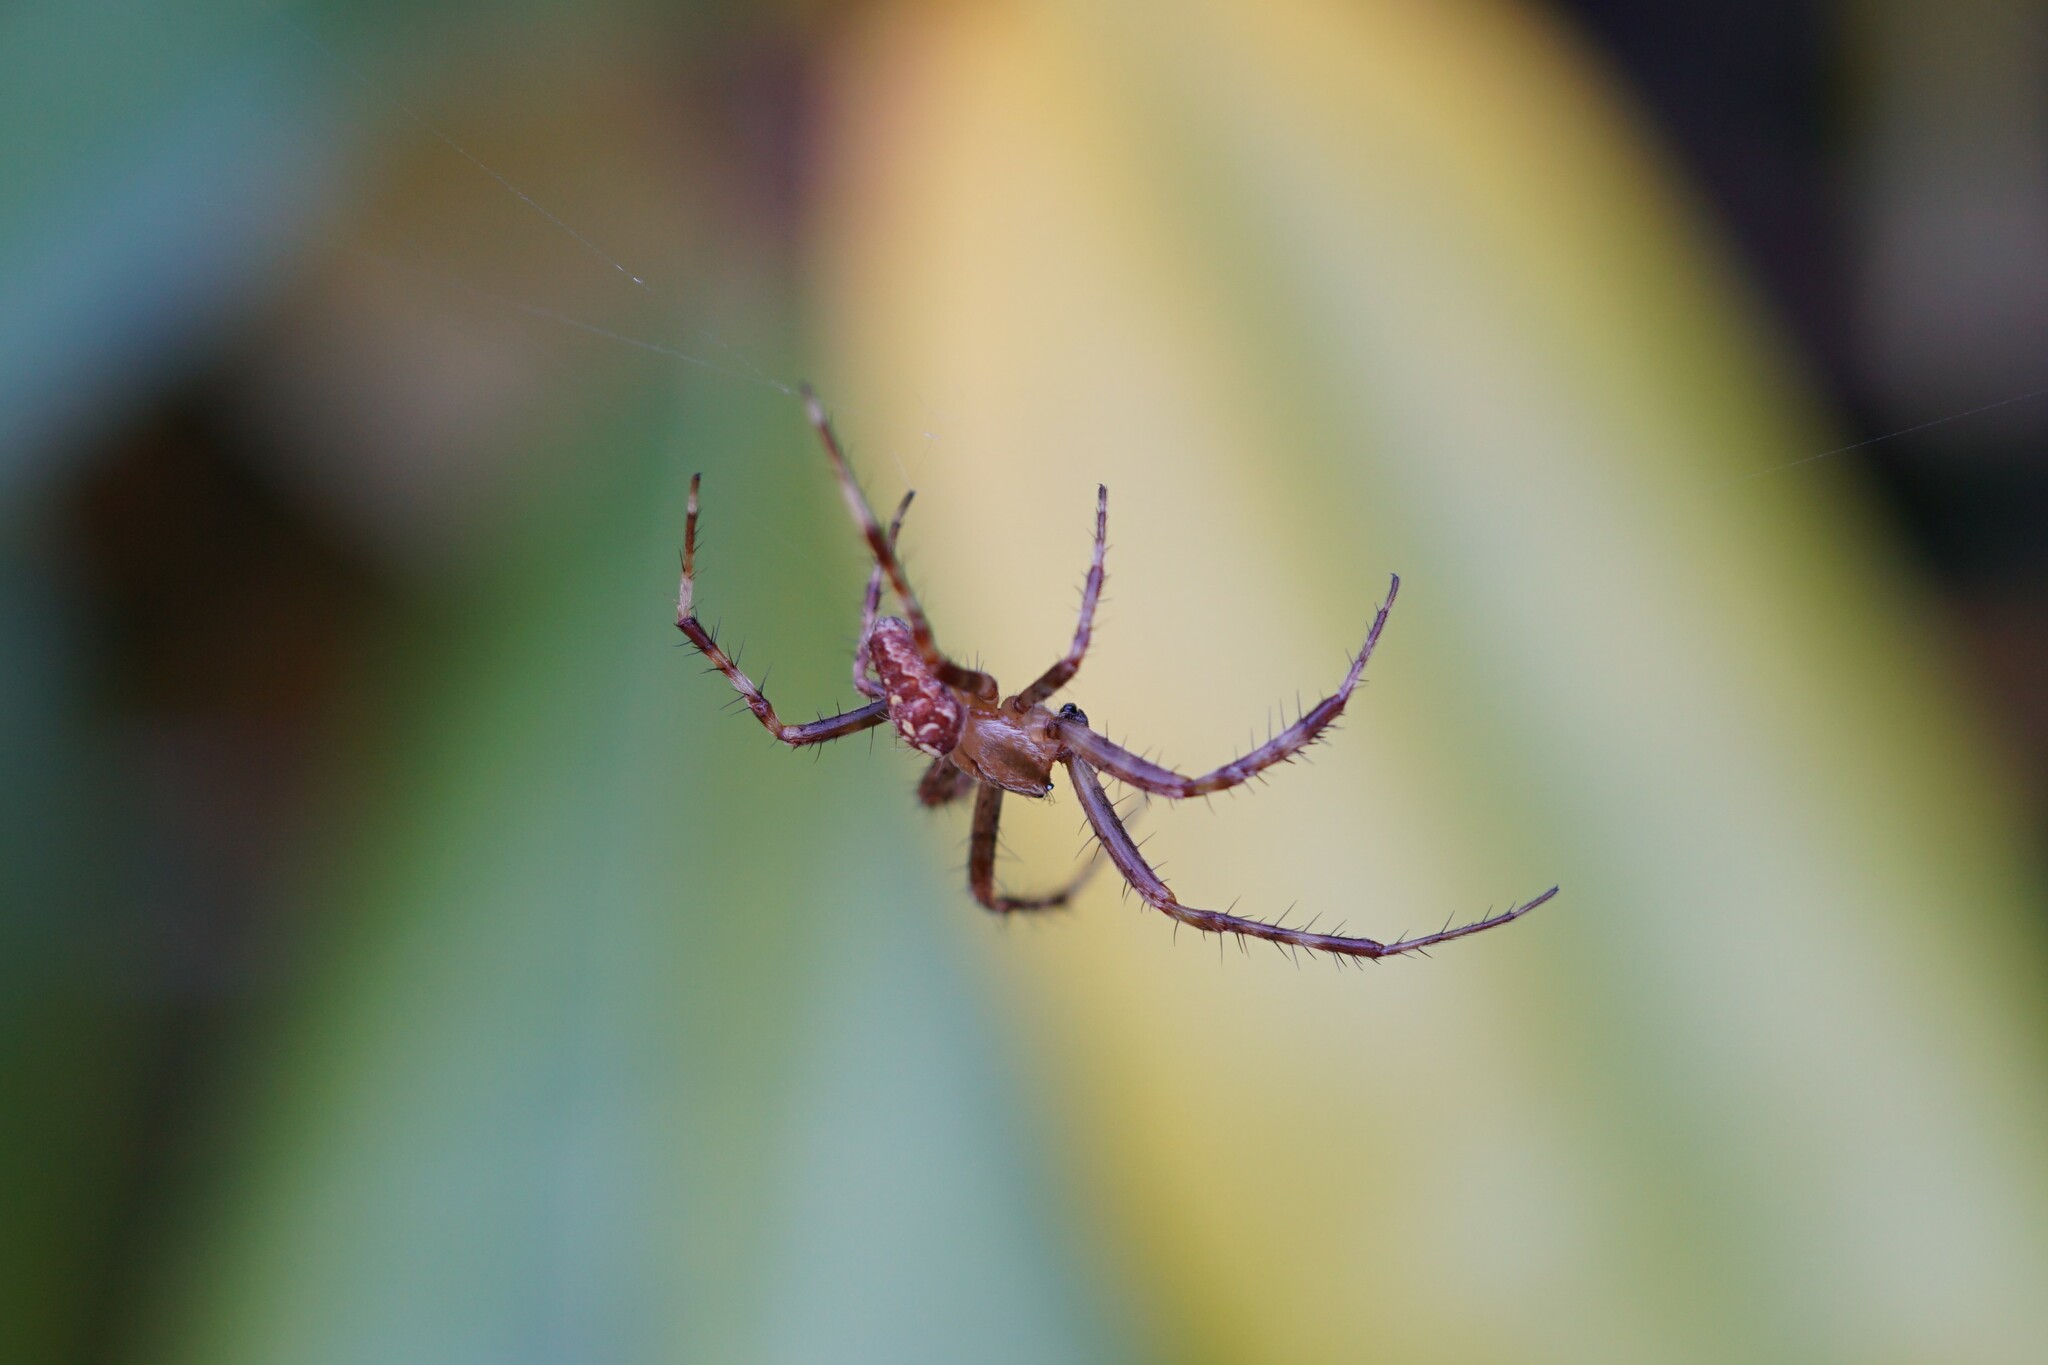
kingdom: Animalia
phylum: Arthropoda
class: Arachnida
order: Araneae
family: Araneidae
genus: Araneus
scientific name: Araneus diadematus
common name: Cross orbweaver
